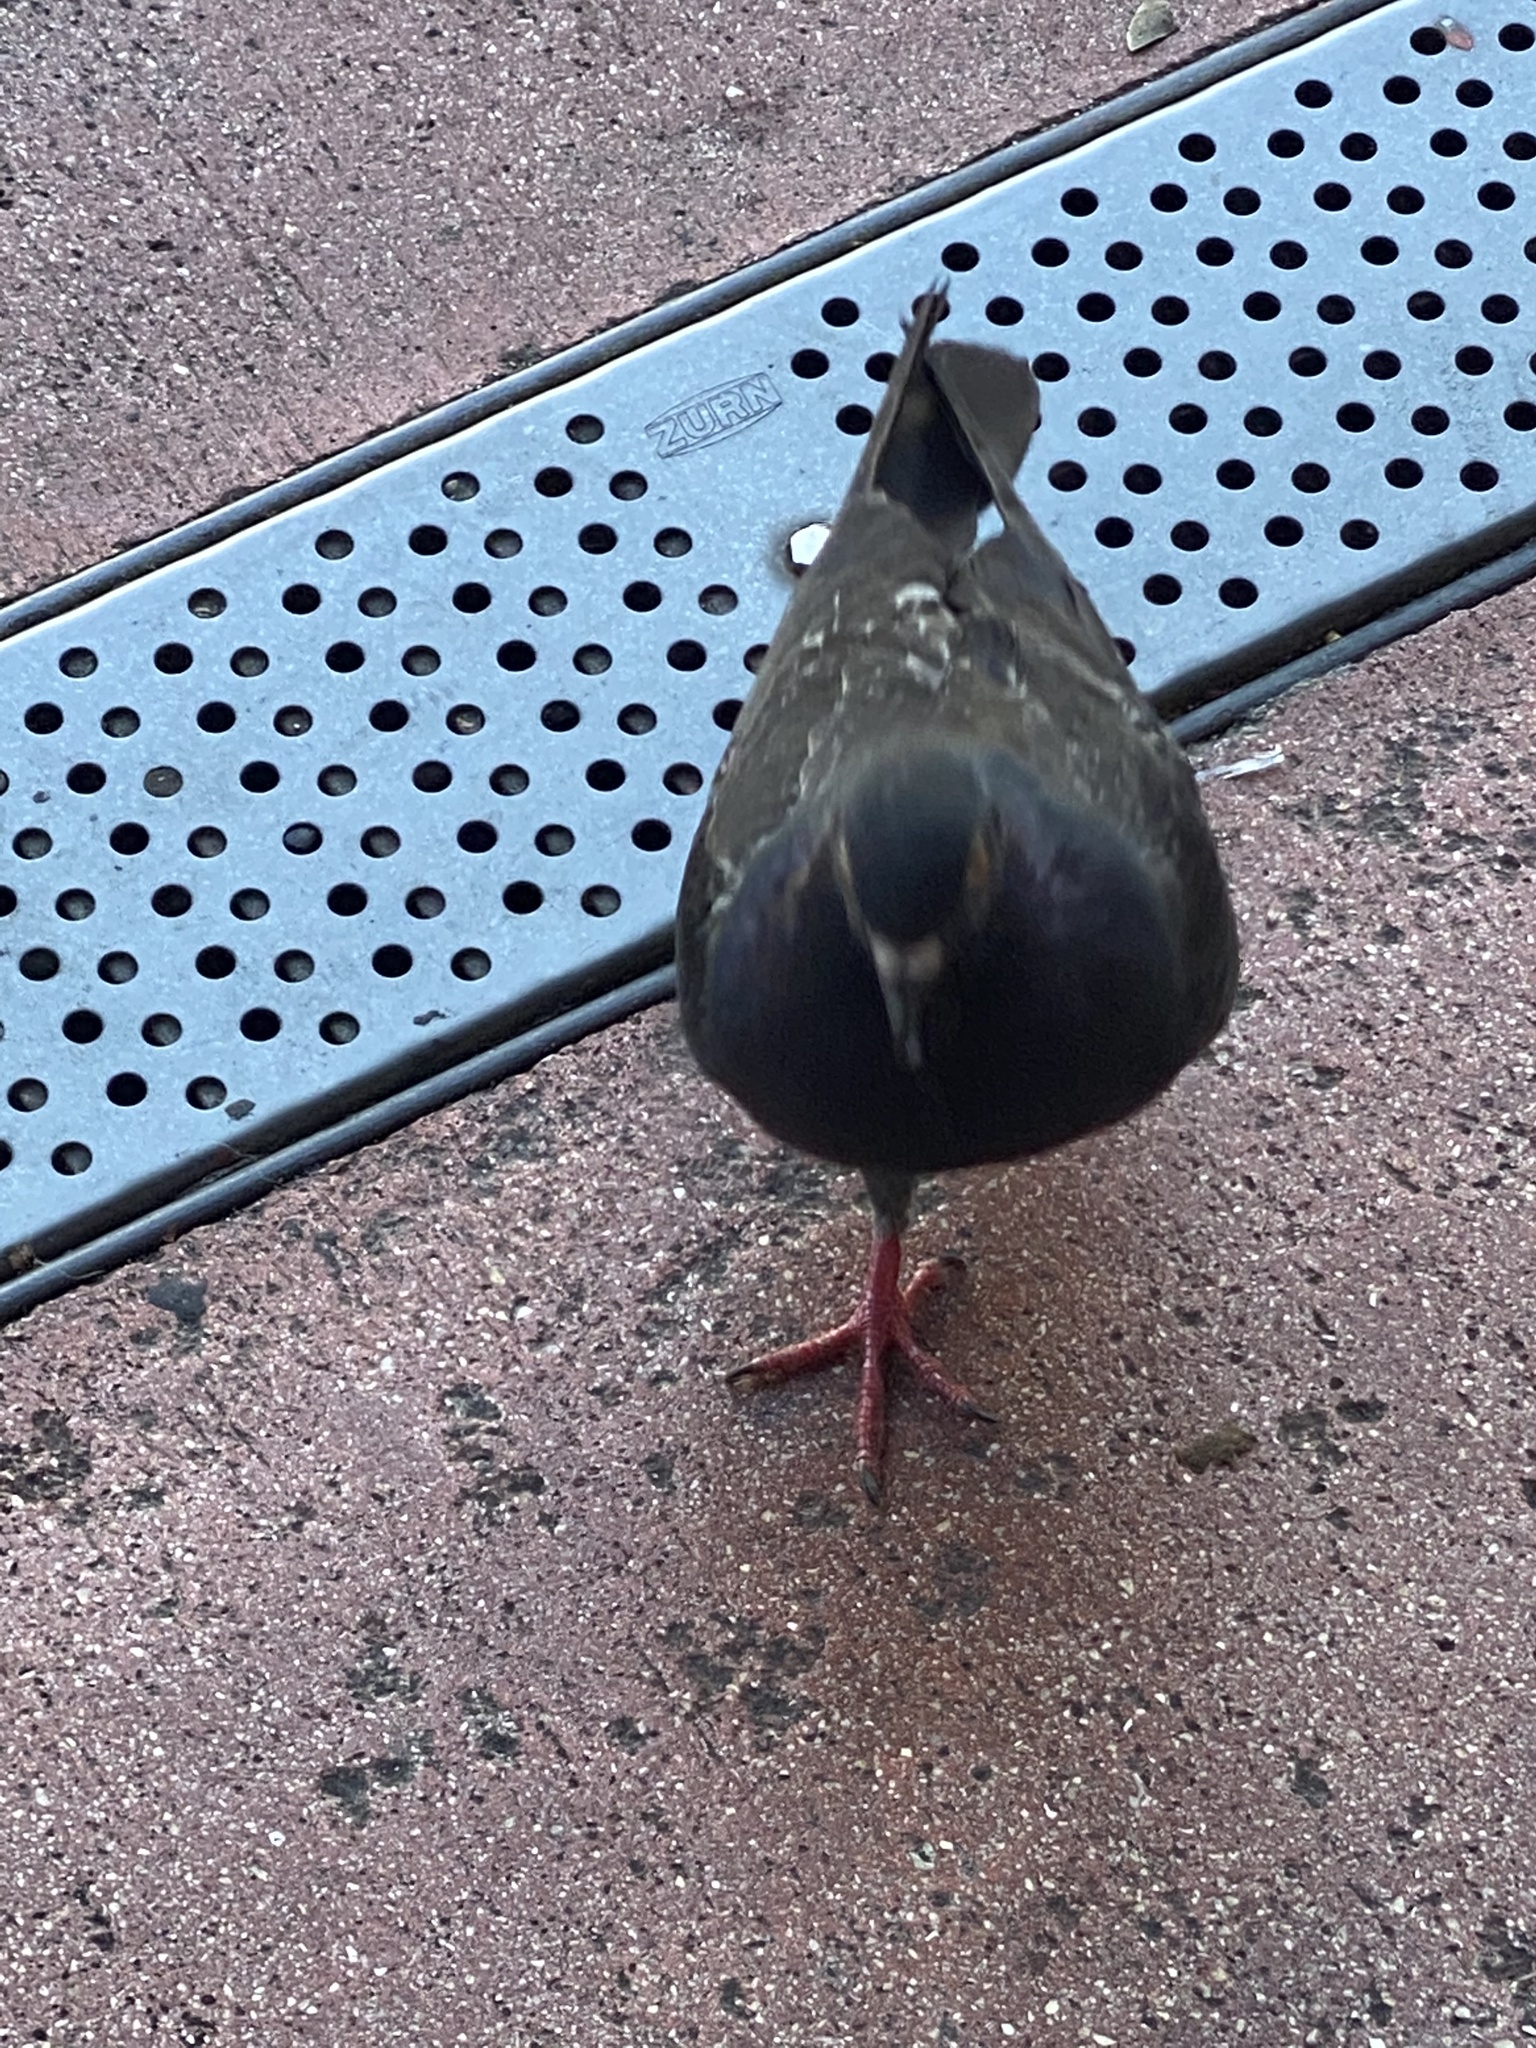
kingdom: Animalia
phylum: Chordata
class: Aves
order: Columbiformes
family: Columbidae
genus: Columba
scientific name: Columba livia
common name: Rock pigeon
